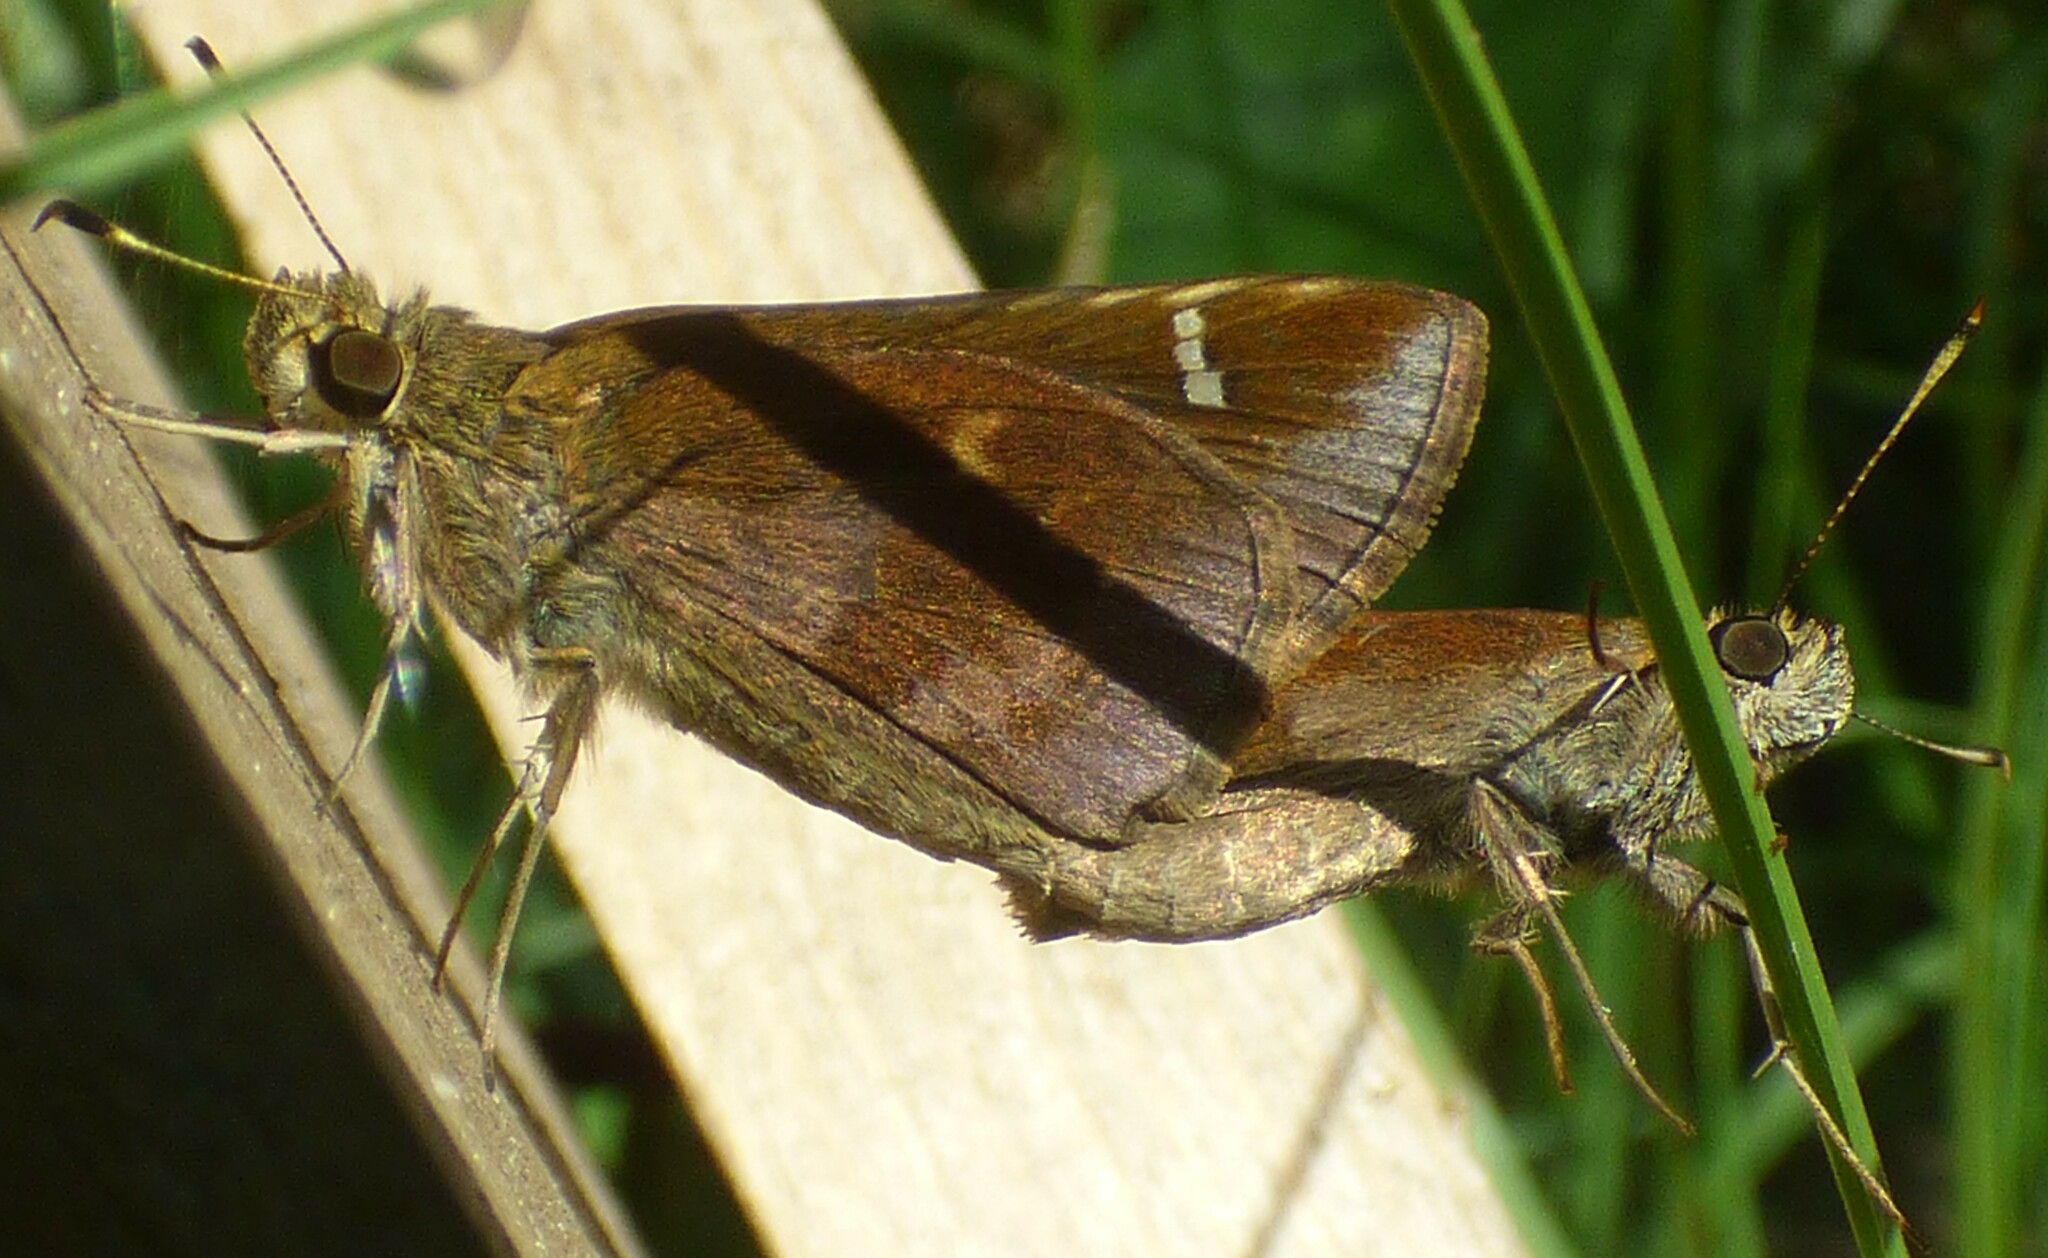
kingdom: Animalia
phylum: Arthropoda
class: Insecta
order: Lepidoptera
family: Hesperiidae
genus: Lerema
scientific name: Lerema accius
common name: Clouded skipper
